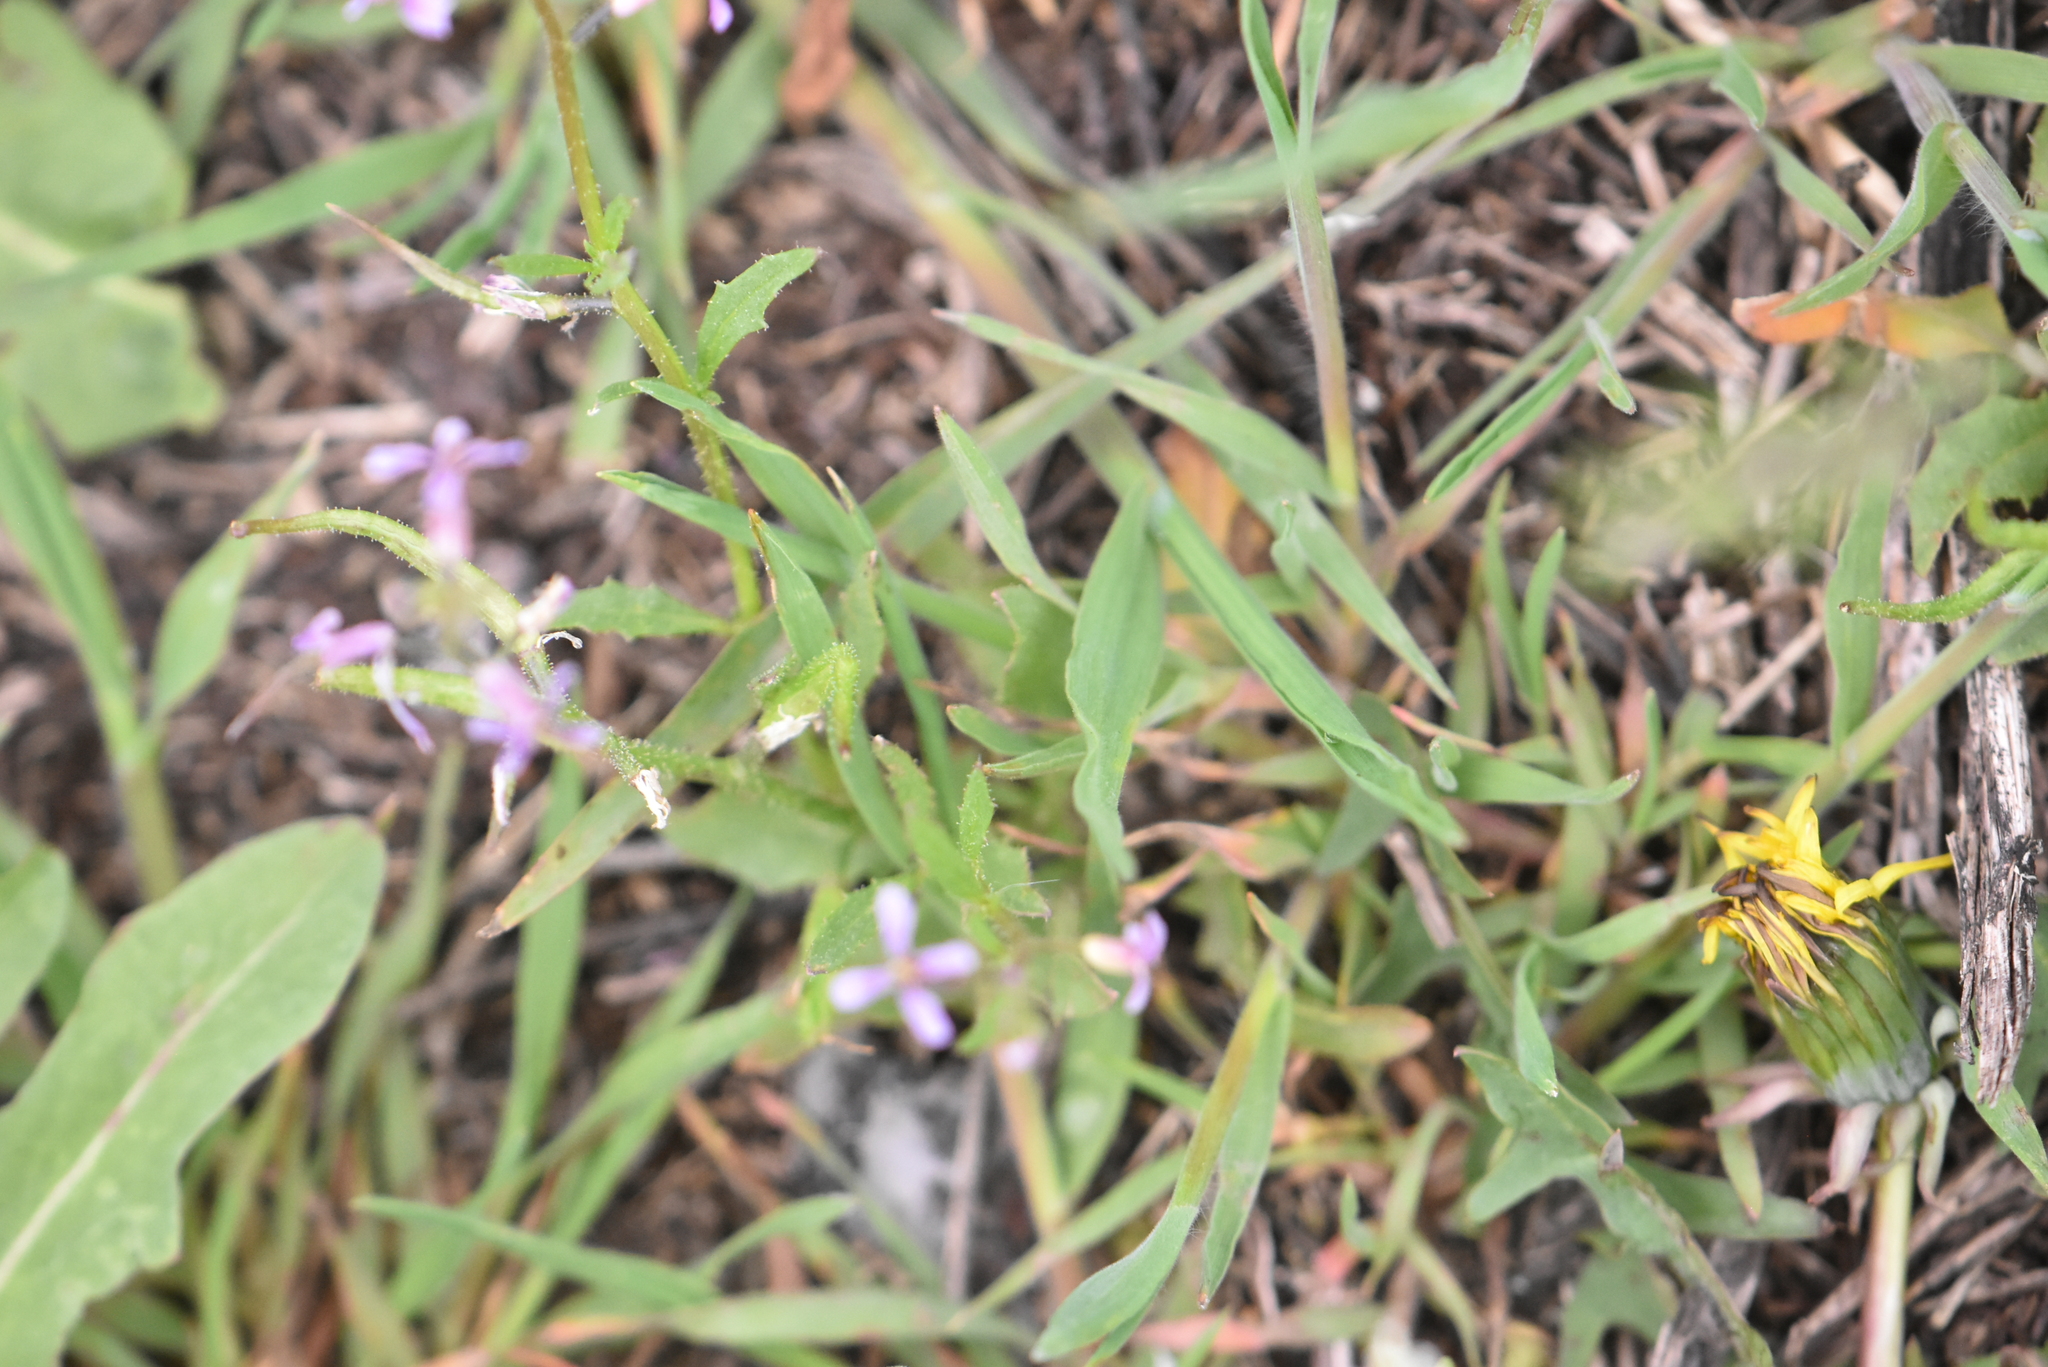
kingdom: Plantae
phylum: Tracheophyta
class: Magnoliopsida
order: Brassicales
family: Brassicaceae
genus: Chorispora
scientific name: Chorispora tenella
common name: Crossflower
